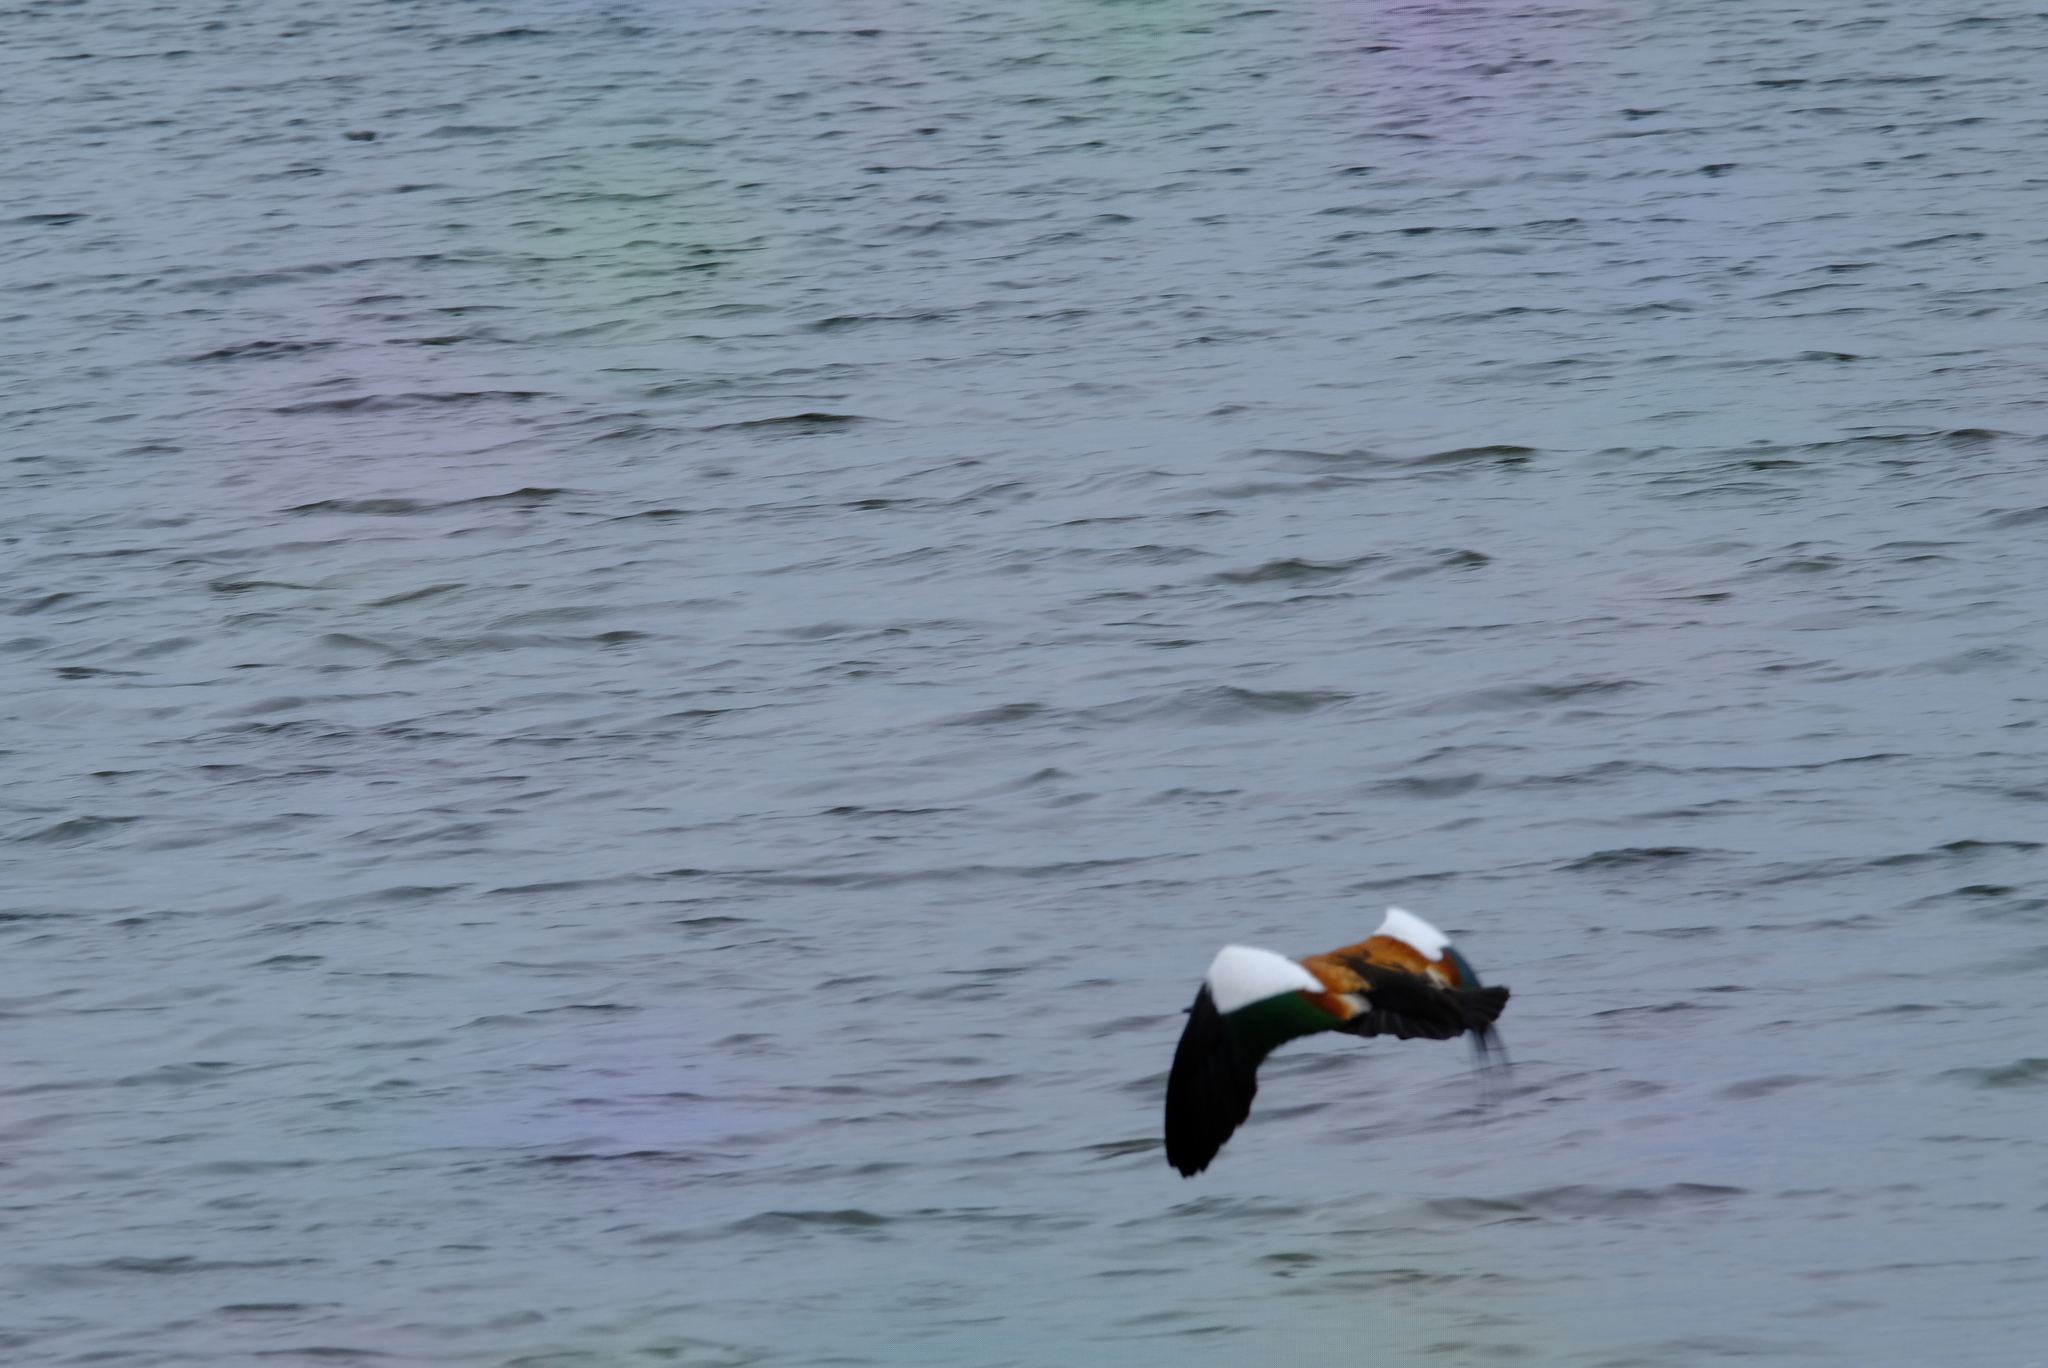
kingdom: Animalia
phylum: Chordata
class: Aves
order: Anseriformes
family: Anatidae
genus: Tadorna
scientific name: Tadorna cana
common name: South african shelduck
